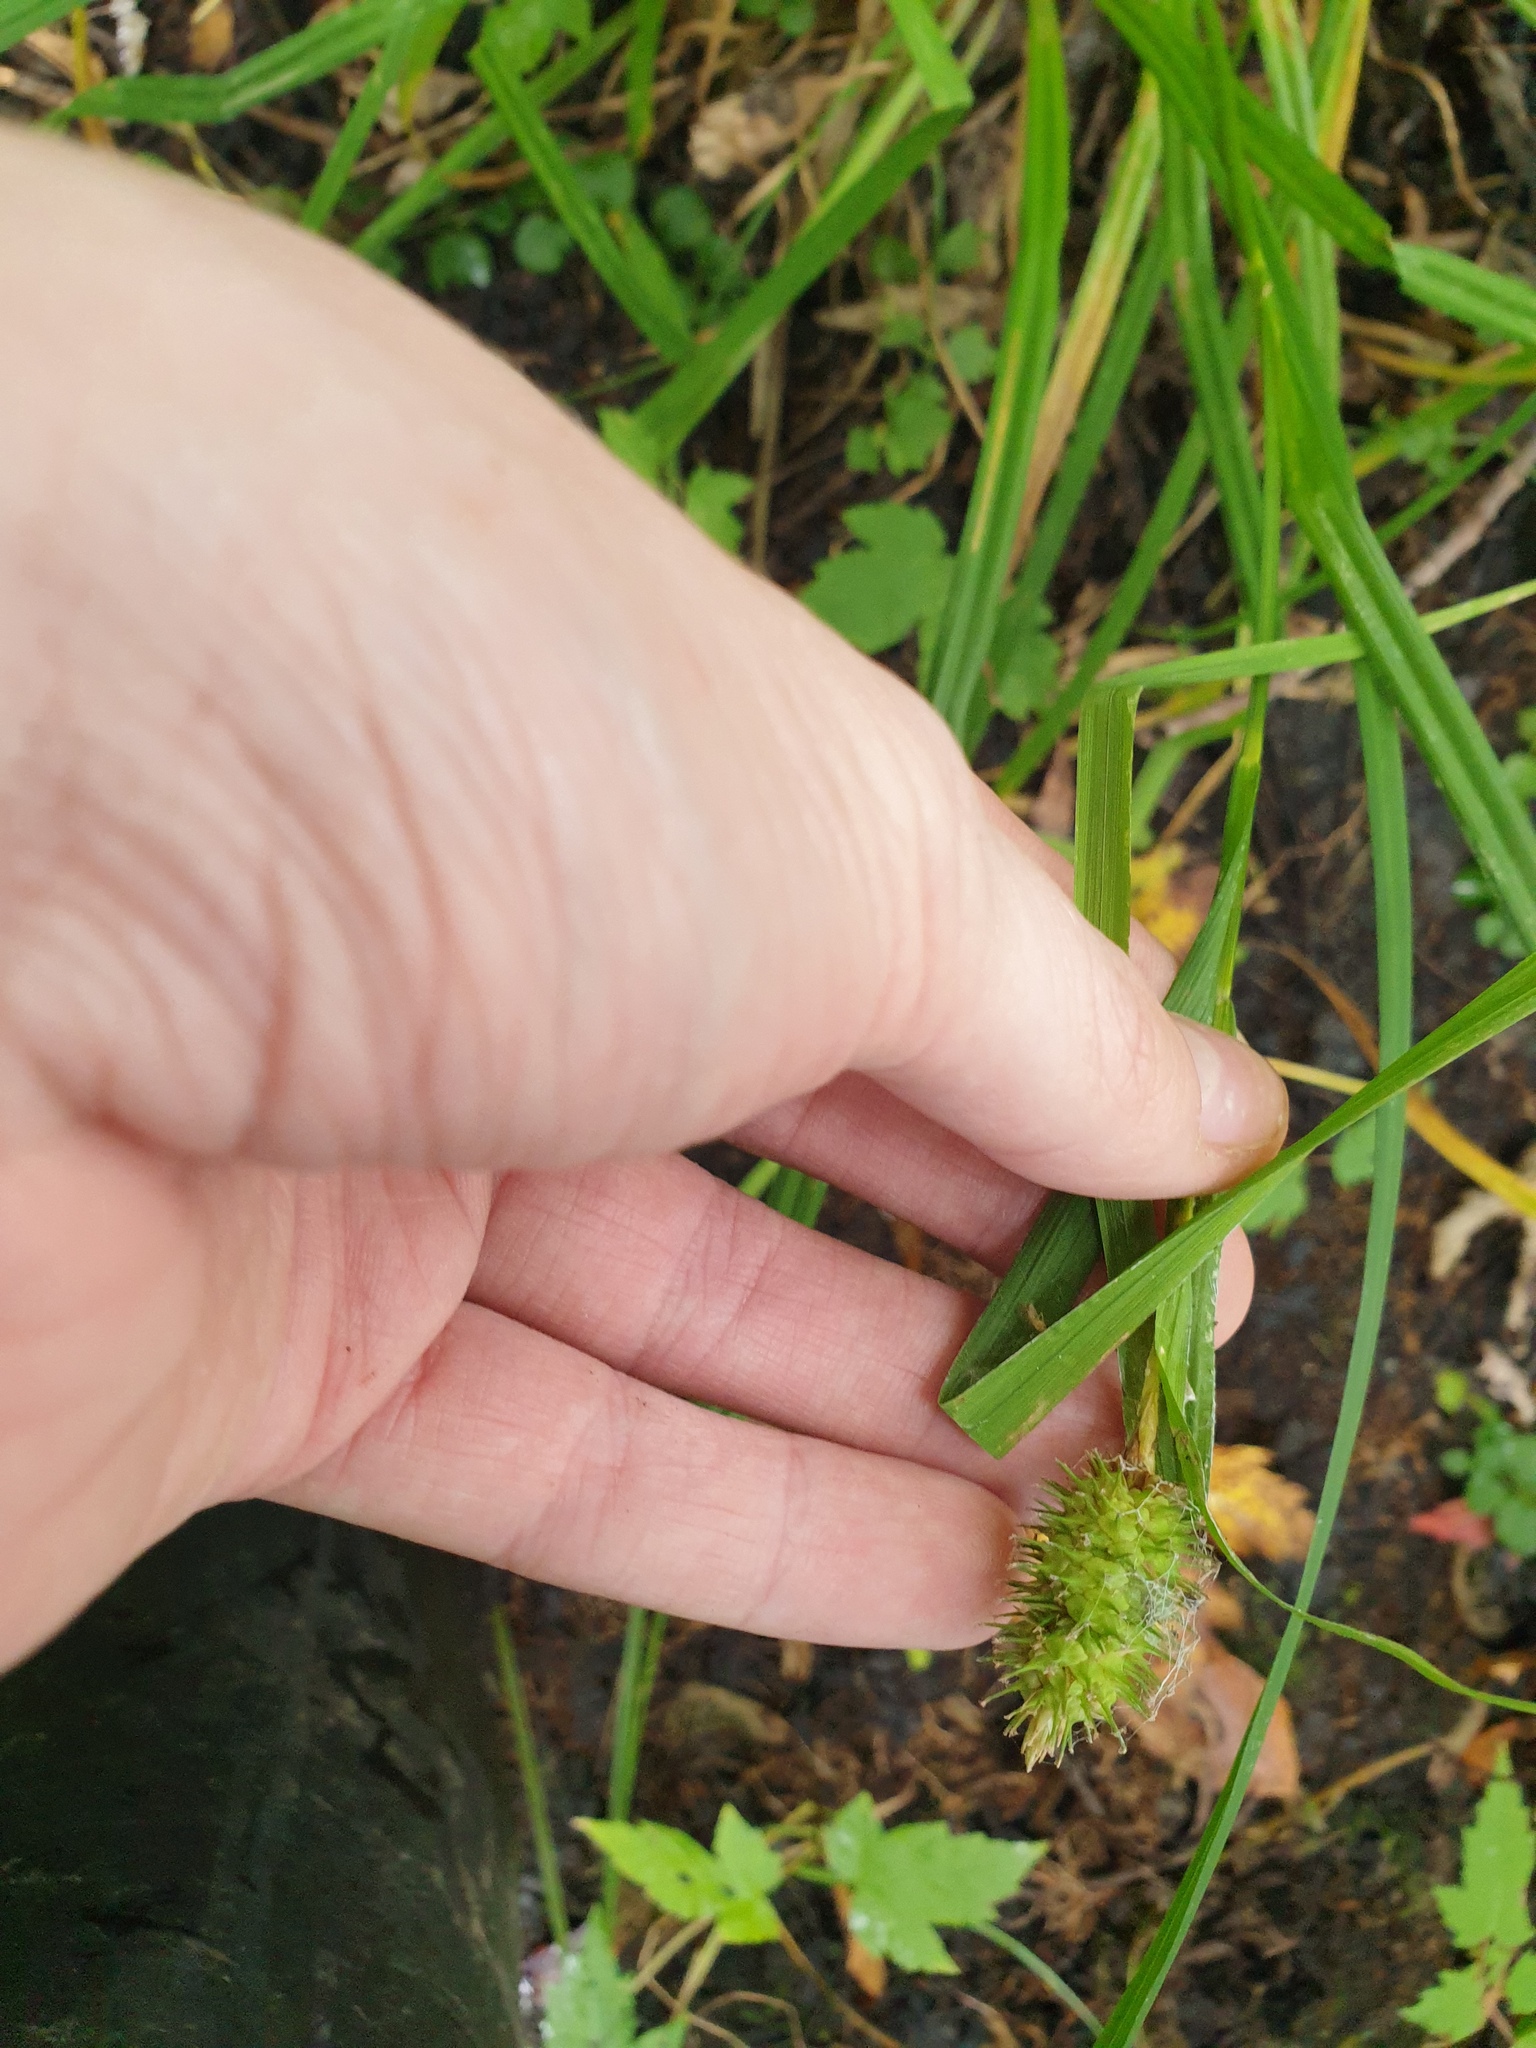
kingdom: Plantae
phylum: Tracheophyta
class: Liliopsida
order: Poales
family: Cyperaceae
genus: Carex
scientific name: Carex typhina
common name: Cattail sedge
